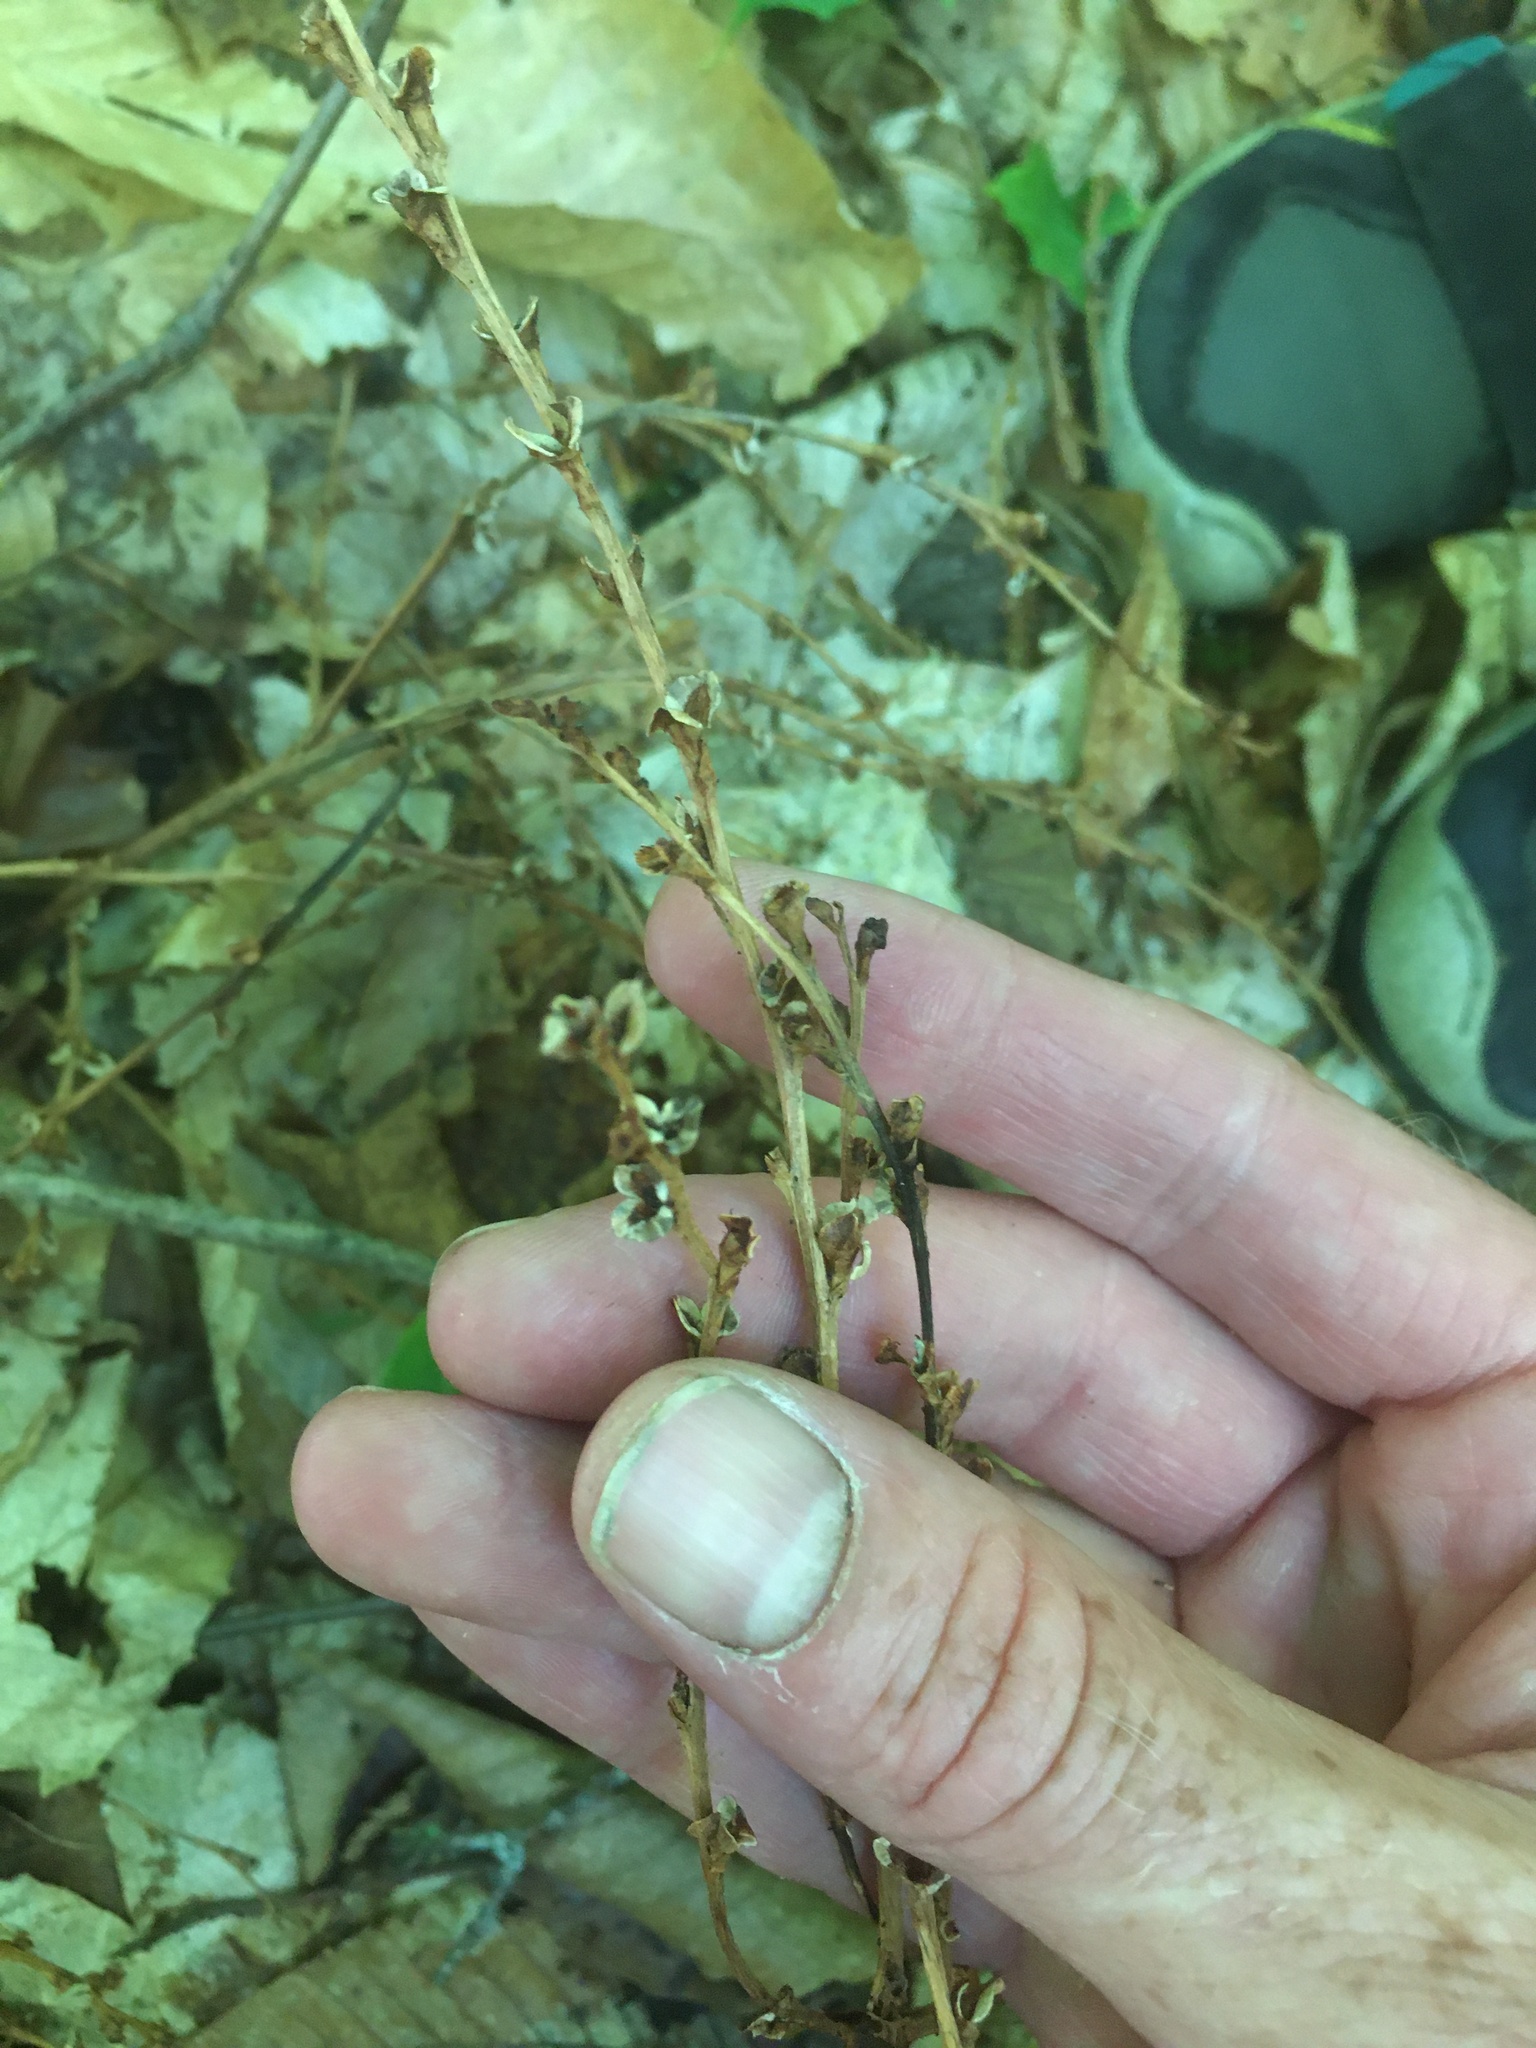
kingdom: Plantae
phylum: Tracheophyta
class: Magnoliopsida
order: Lamiales
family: Orobanchaceae
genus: Epifagus
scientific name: Epifagus virginiana
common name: Beechdrops
